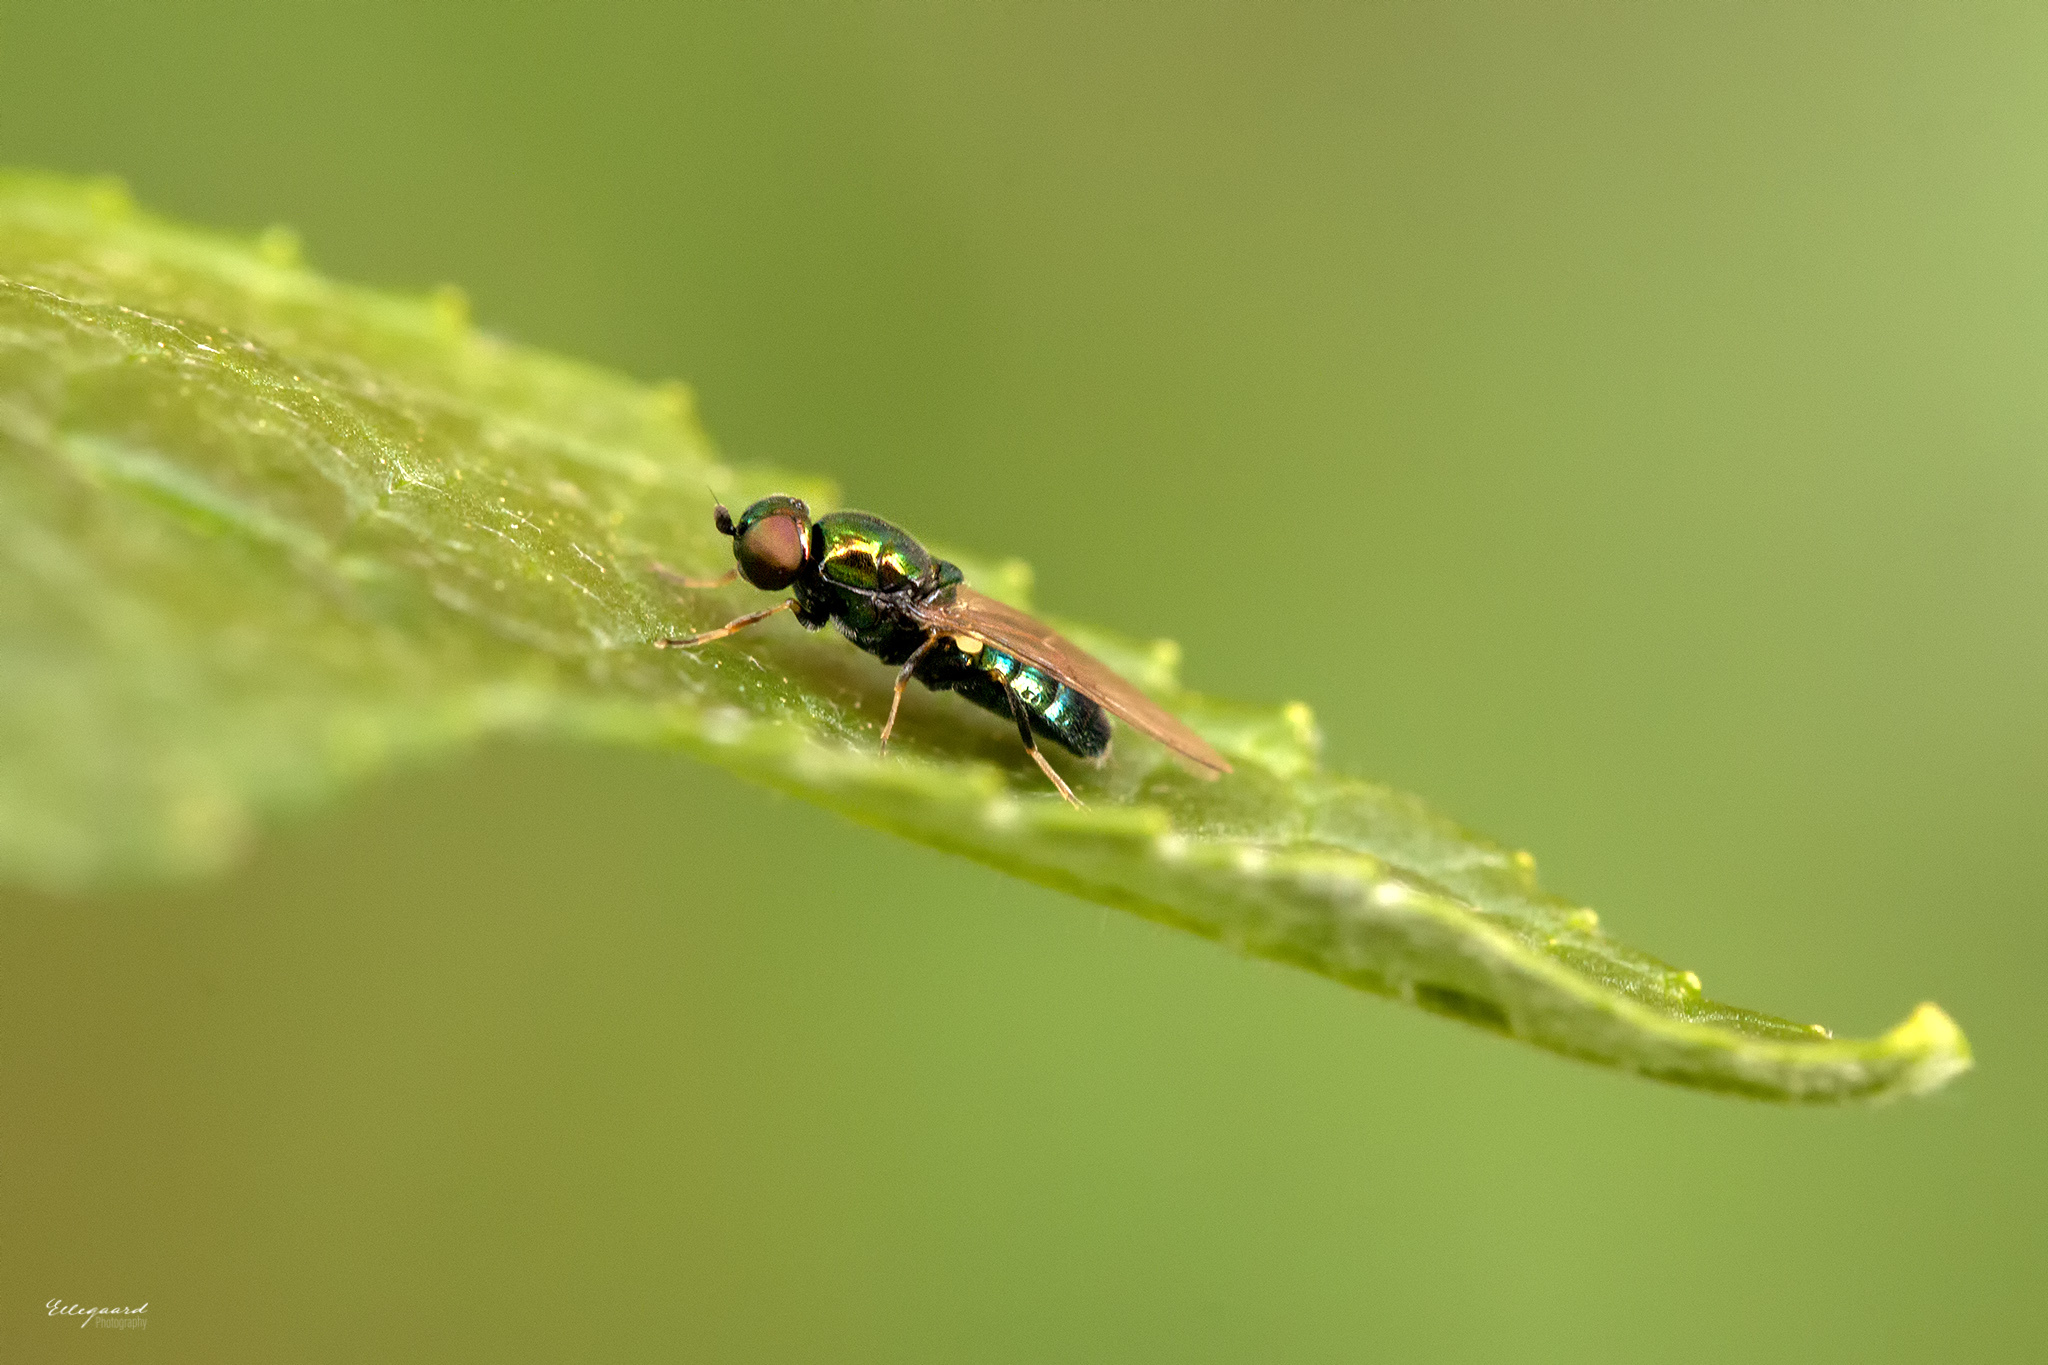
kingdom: Animalia
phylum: Arthropoda
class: Insecta
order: Diptera
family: Stratiomyidae
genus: Microchrysa
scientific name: Microchrysa polita
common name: Black-horned gem
